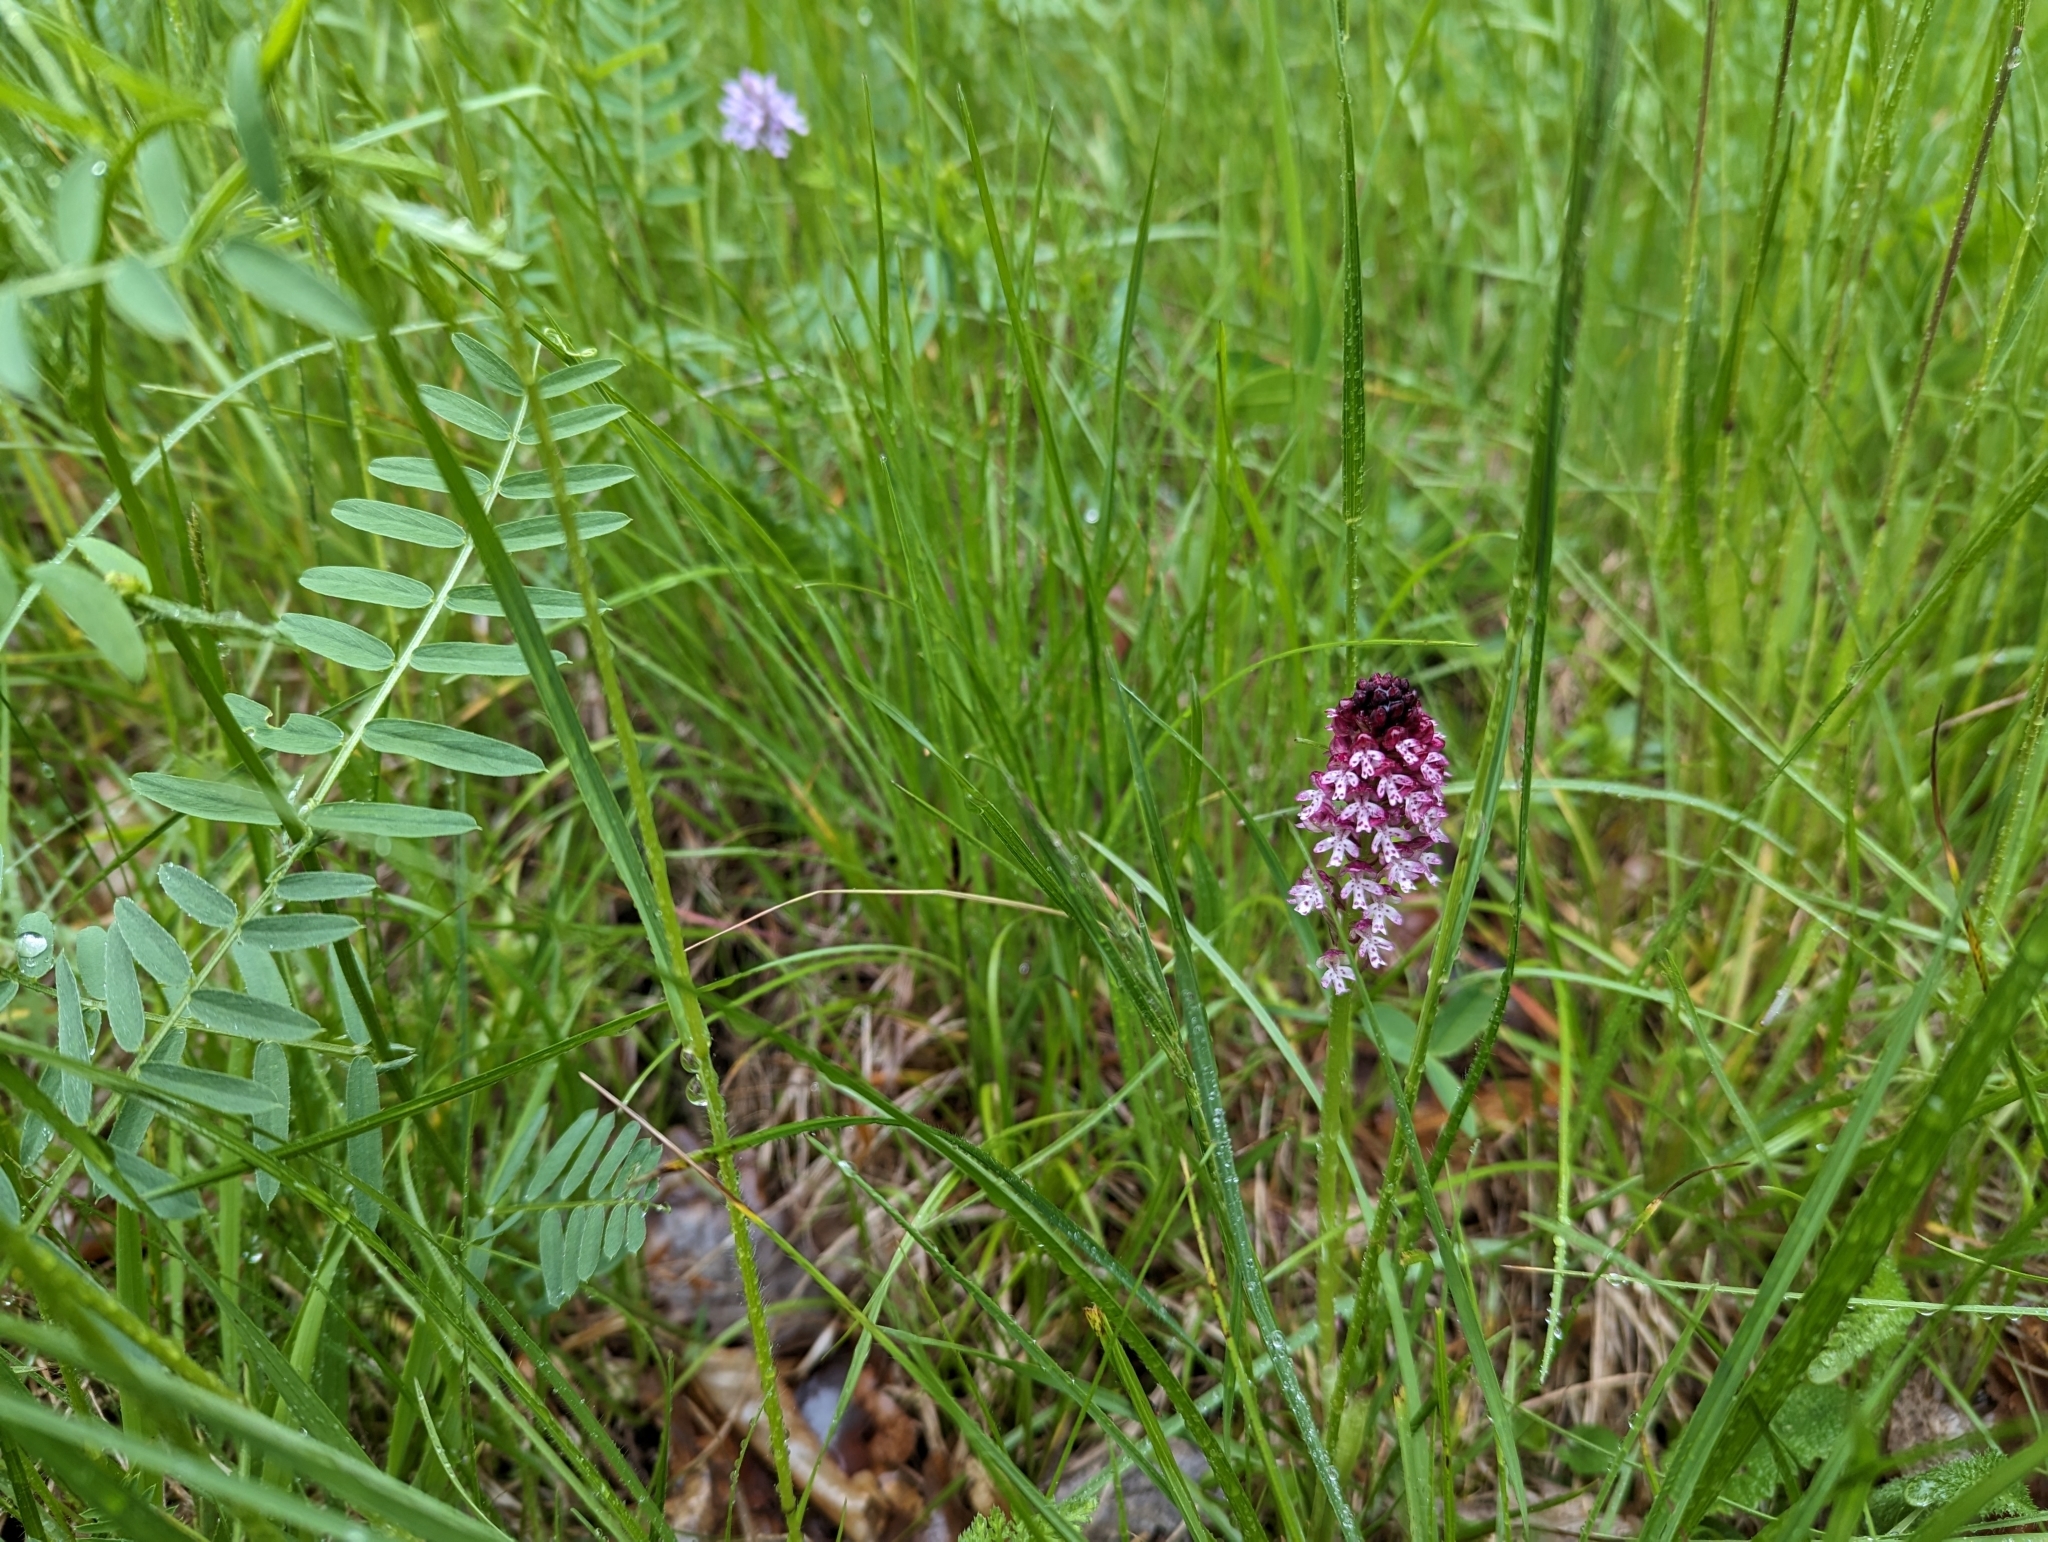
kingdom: Plantae
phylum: Tracheophyta
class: Liliopsida
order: Asparagales
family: Orchidaceae
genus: Neotinea
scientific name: Neotinea ustulata
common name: Burnt orchid
